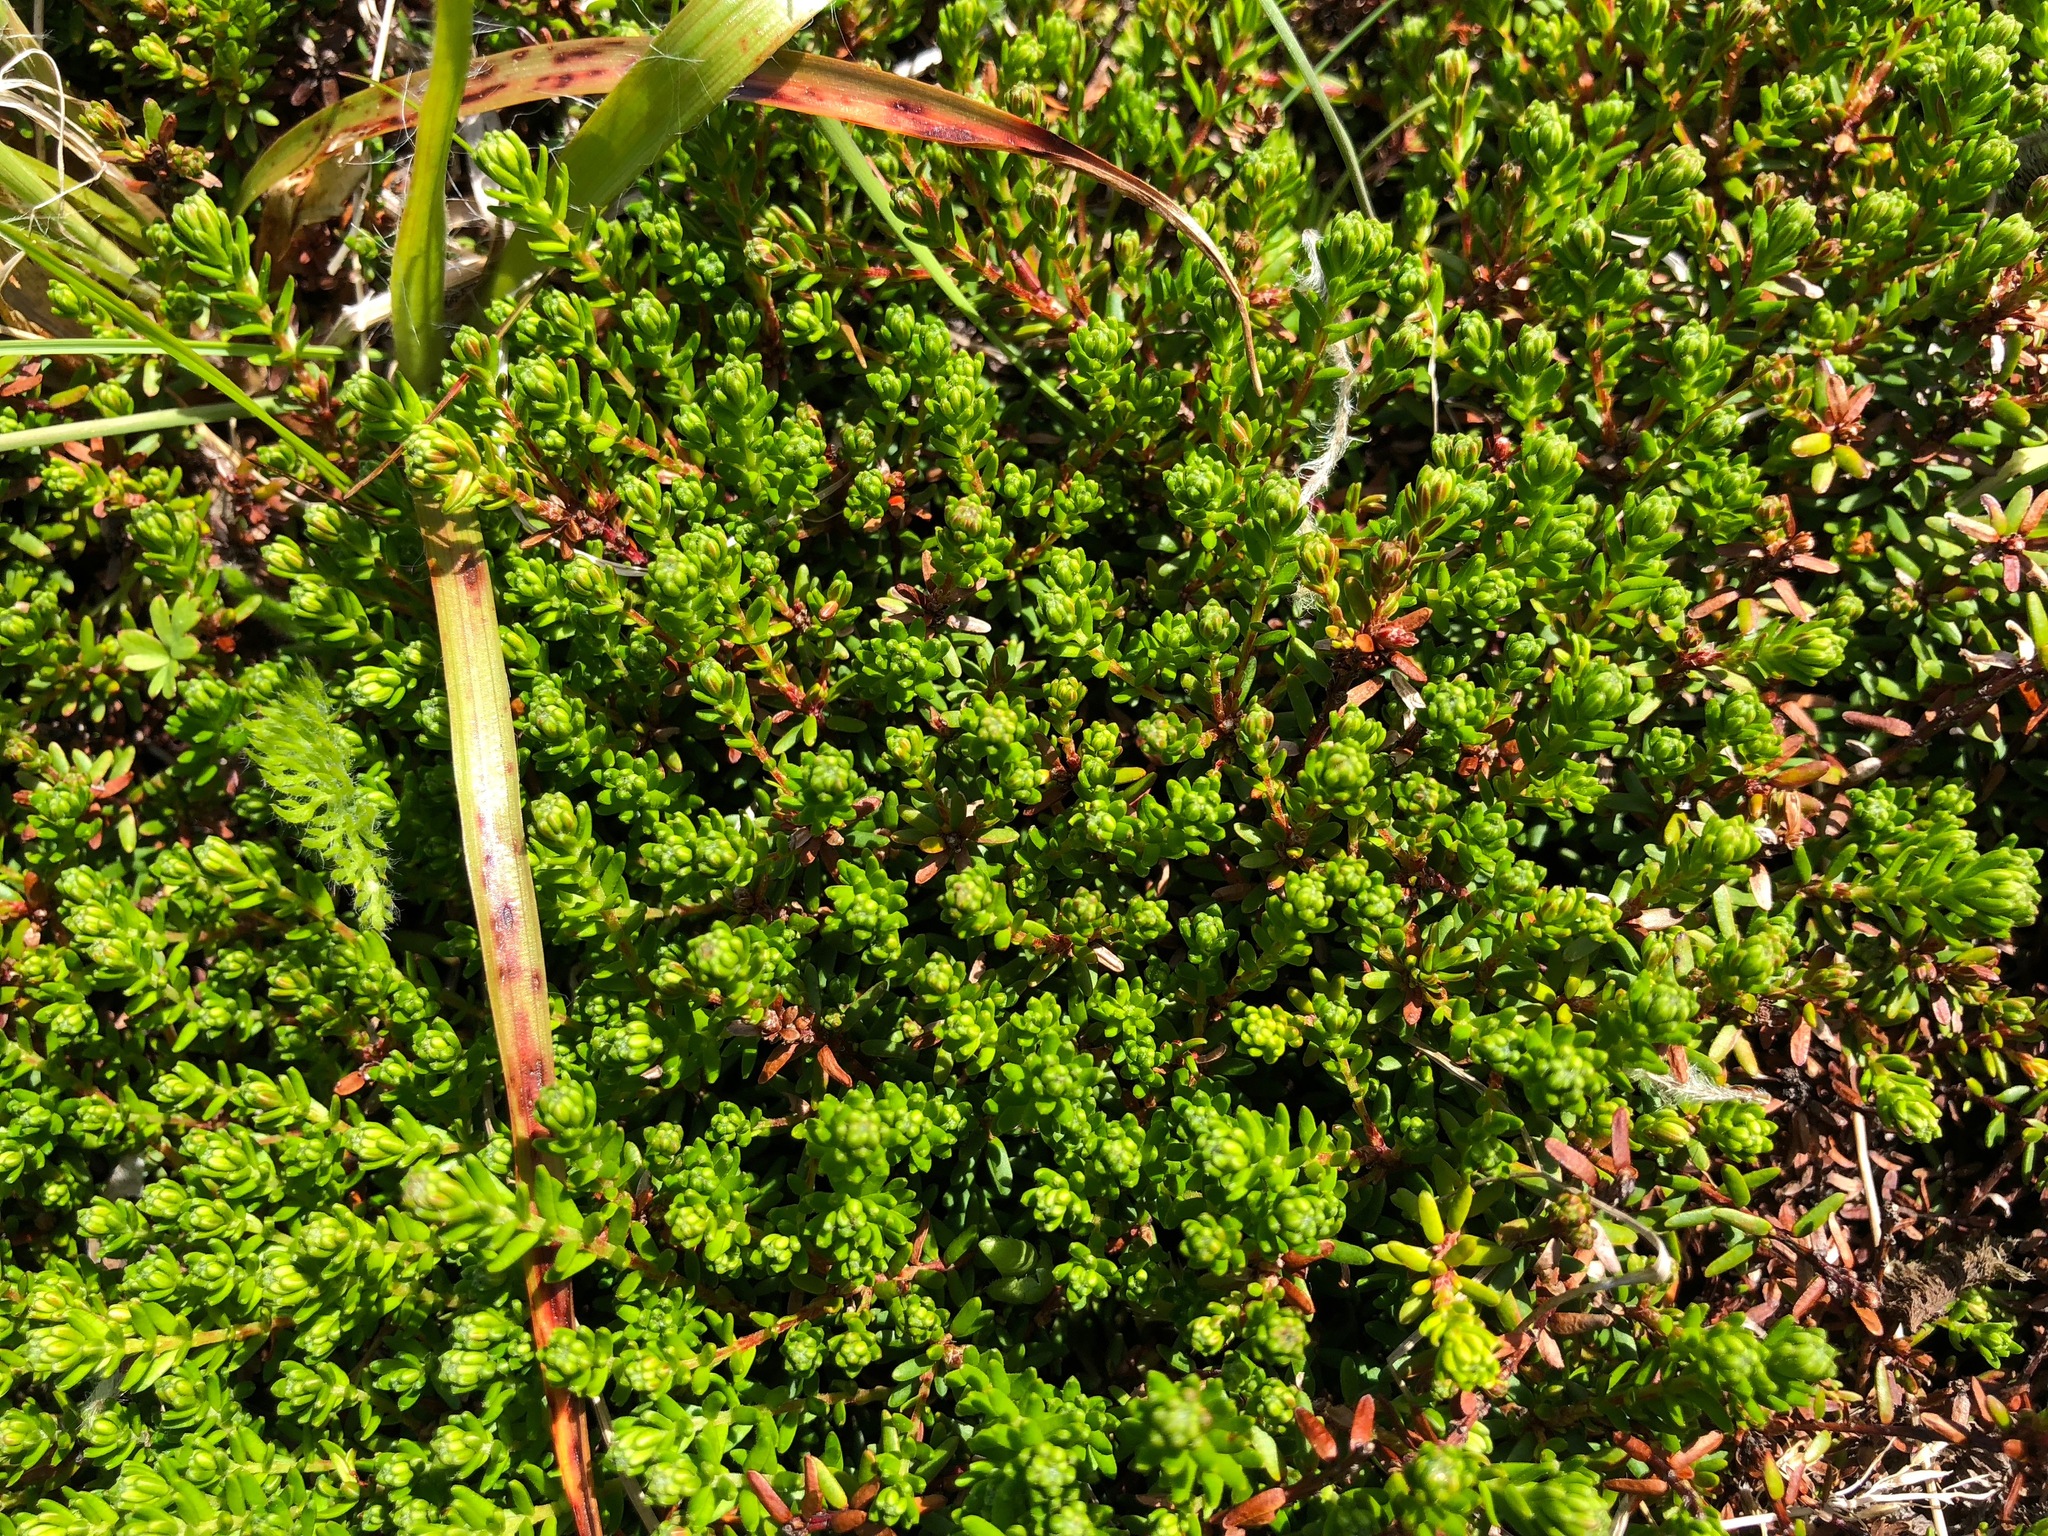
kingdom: Plantae
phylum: Tracheophyta
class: Magnoliopsida
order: Ericales
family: Ericaceae
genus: Empetrum
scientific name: Empetrum nigrum
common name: Black crowberry
